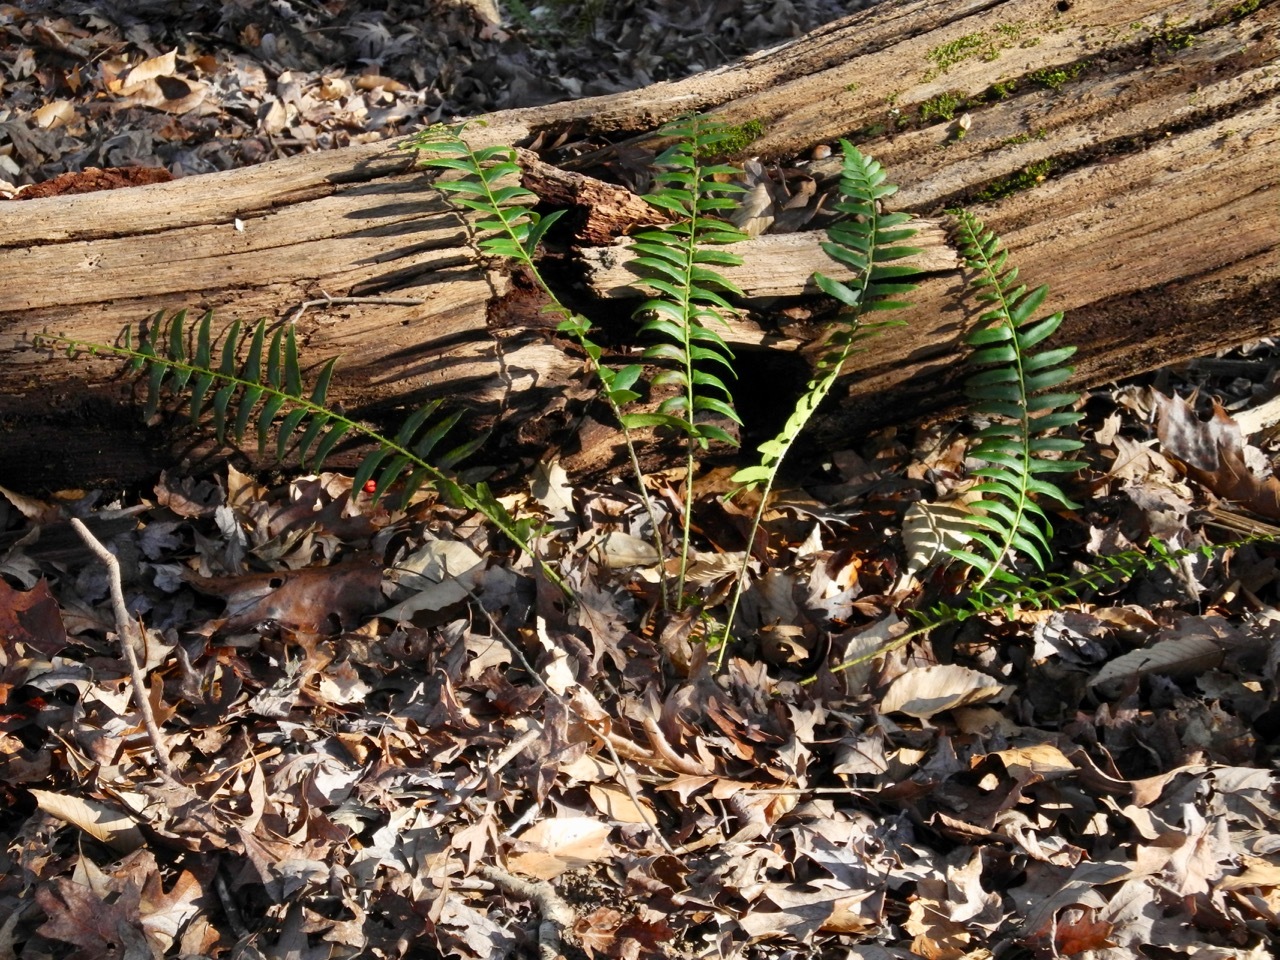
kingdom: Plantae
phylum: Tracheophyta
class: Polypodiopsida
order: Polypodiales
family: Dryopteridaceae
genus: Polystichum
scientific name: Polystichum acrostichoides
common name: Christmas fern
